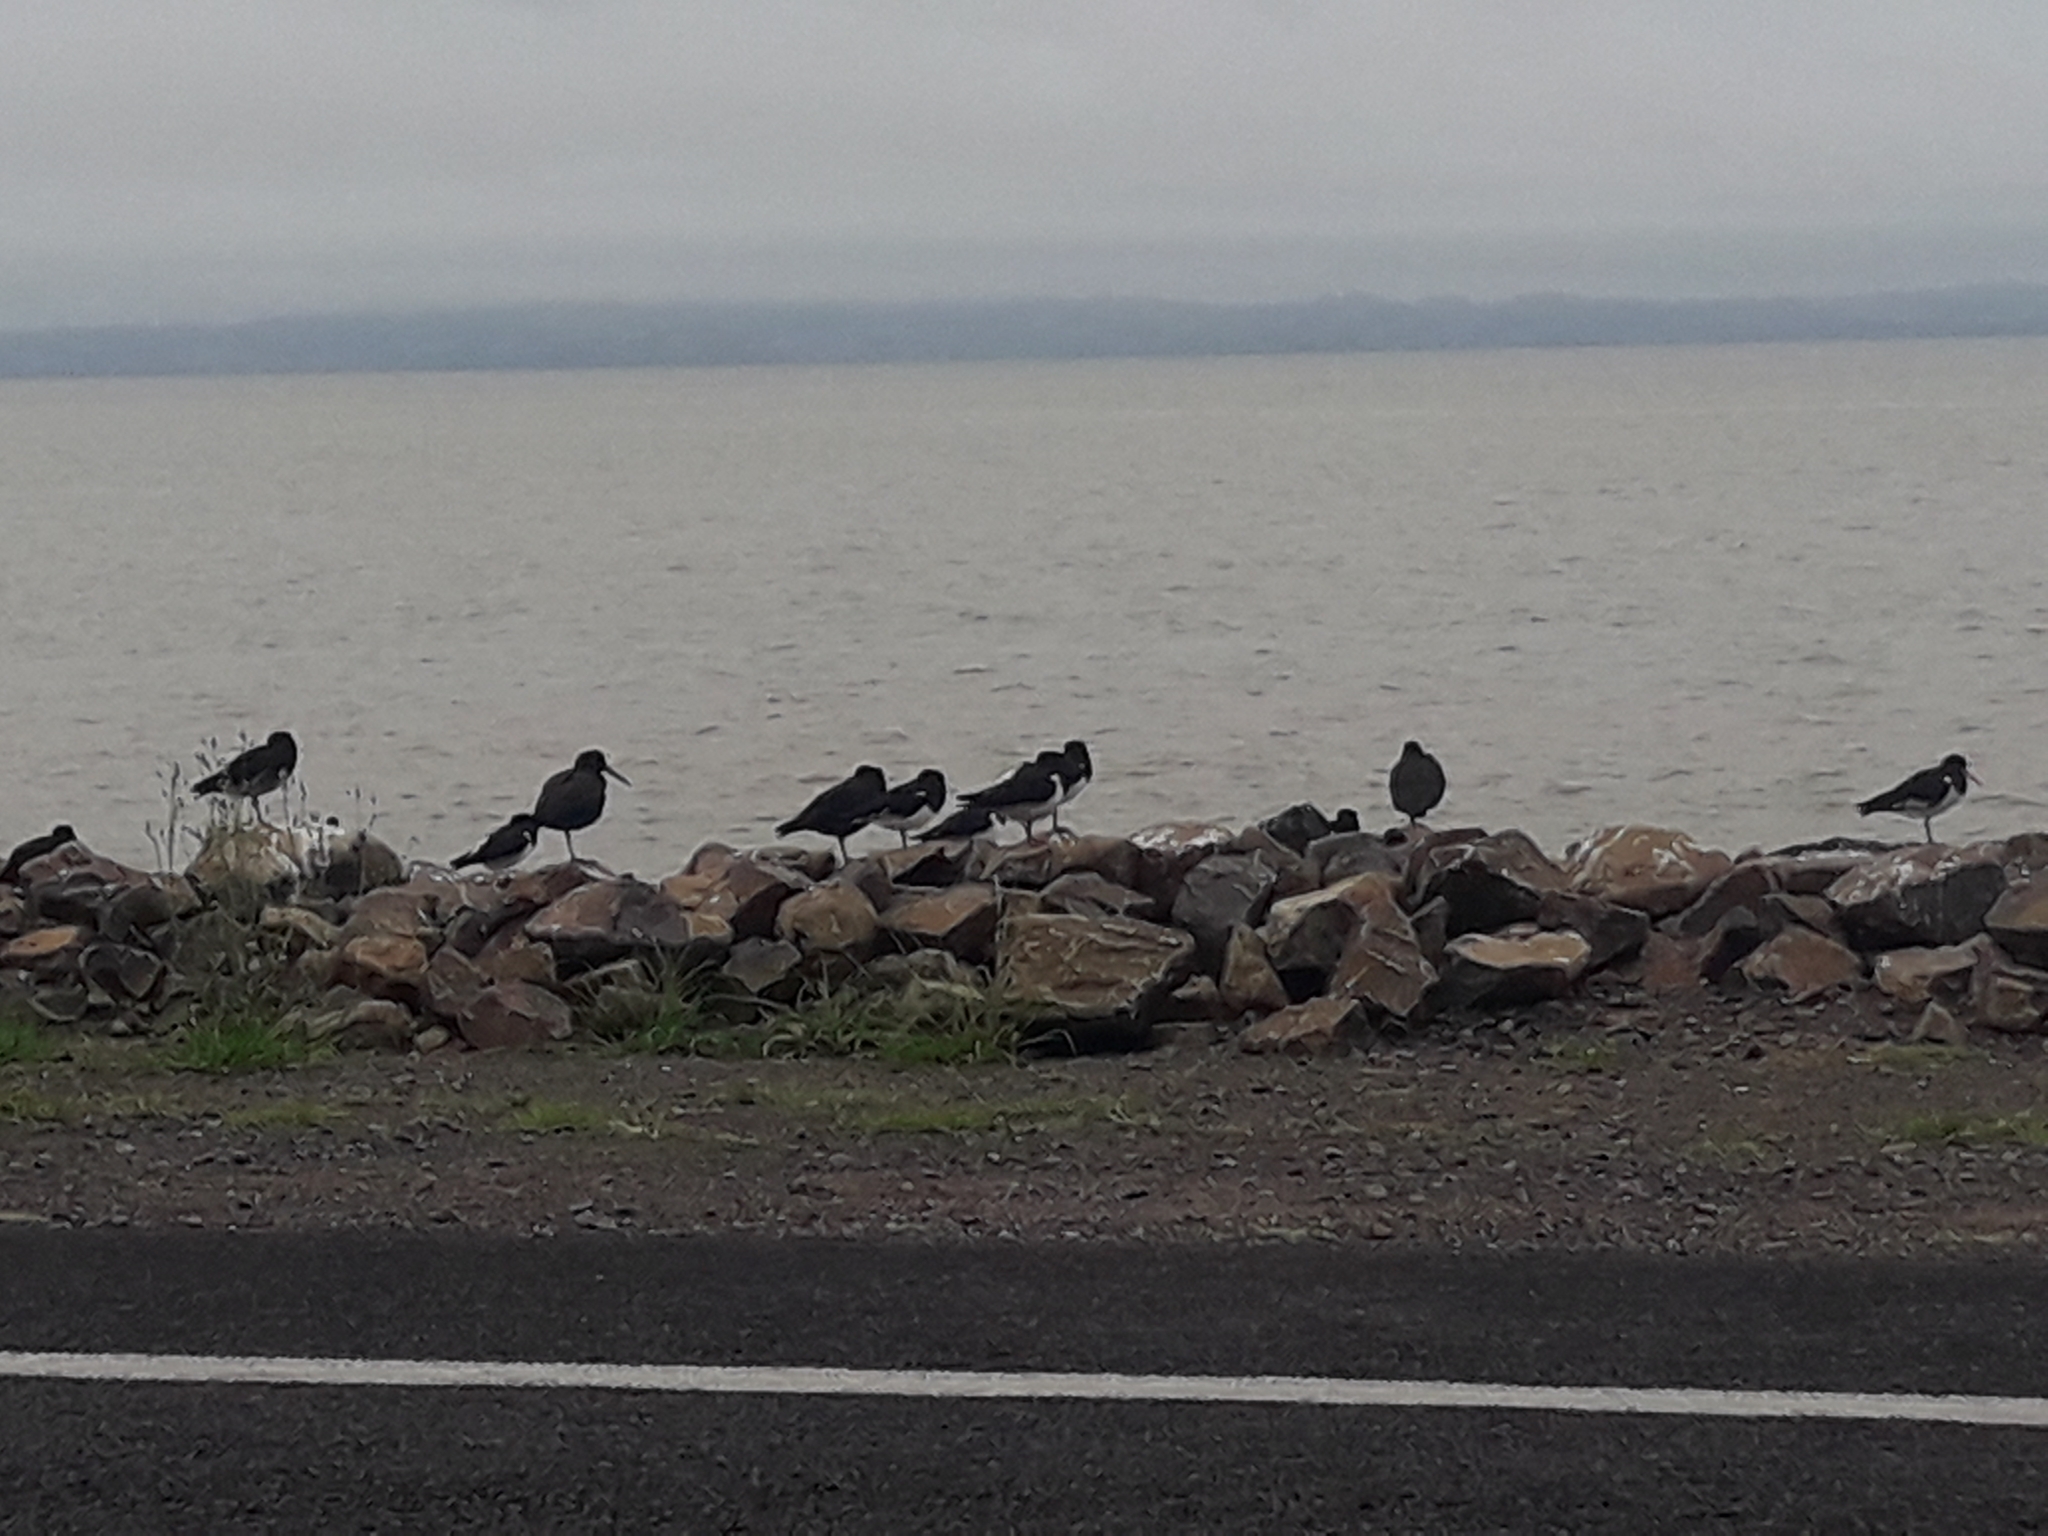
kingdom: Animalia
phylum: Chordata
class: Aves
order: Charadriiformes
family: Haematopodidae
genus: Haematopus
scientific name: Haematopus finschi
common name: South island oystercatcher
